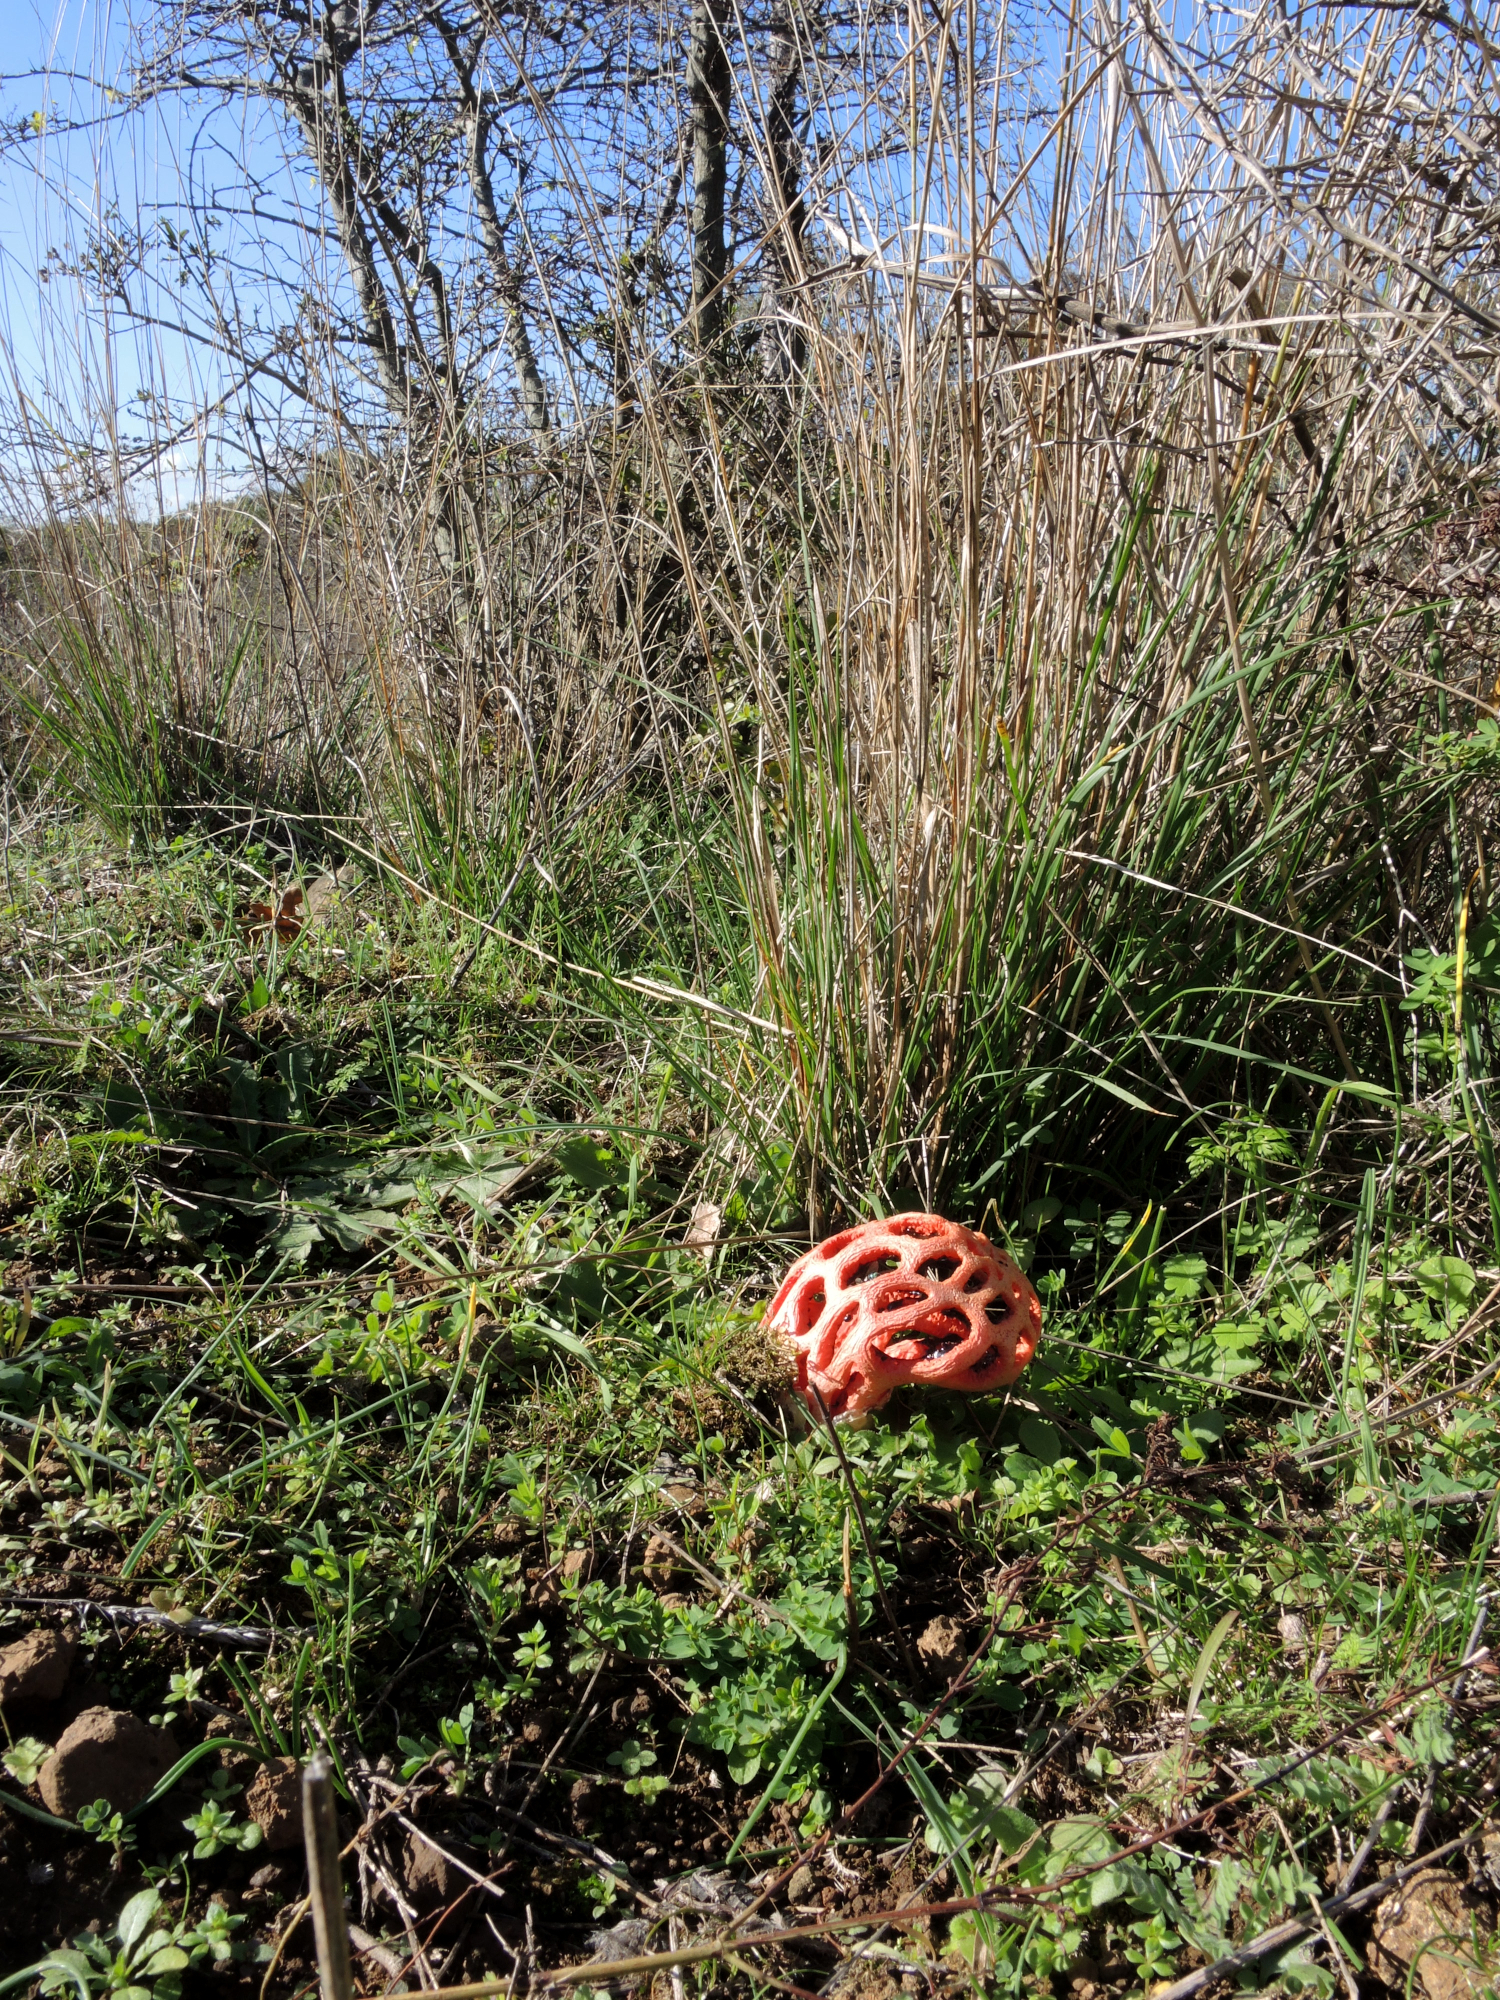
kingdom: Fungi
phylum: Basidiomycota
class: Agaricomycetes
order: Phallales
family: Phallaceae
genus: Clathrus
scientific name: Clathrus ruber
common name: Red cage
